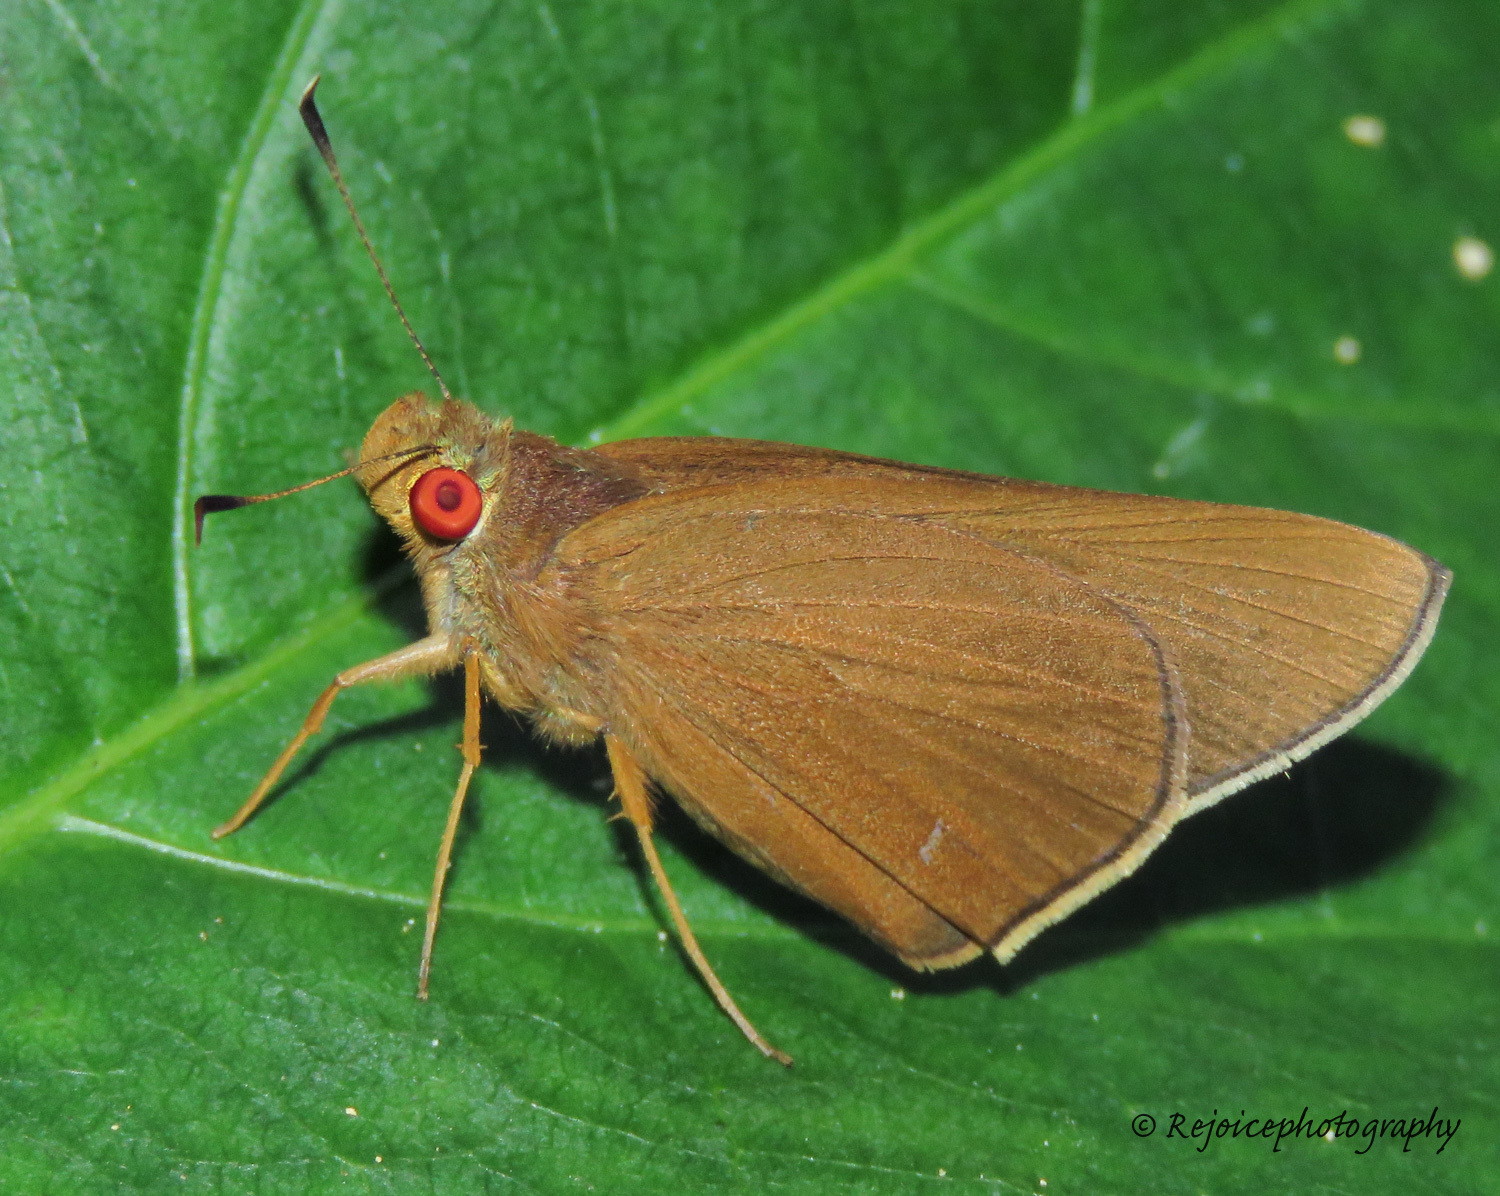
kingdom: Animalia
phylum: Arthropoda
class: Insecta
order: Lepidoptera
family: Hesperiidae
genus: Matapa
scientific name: Matapa aria
